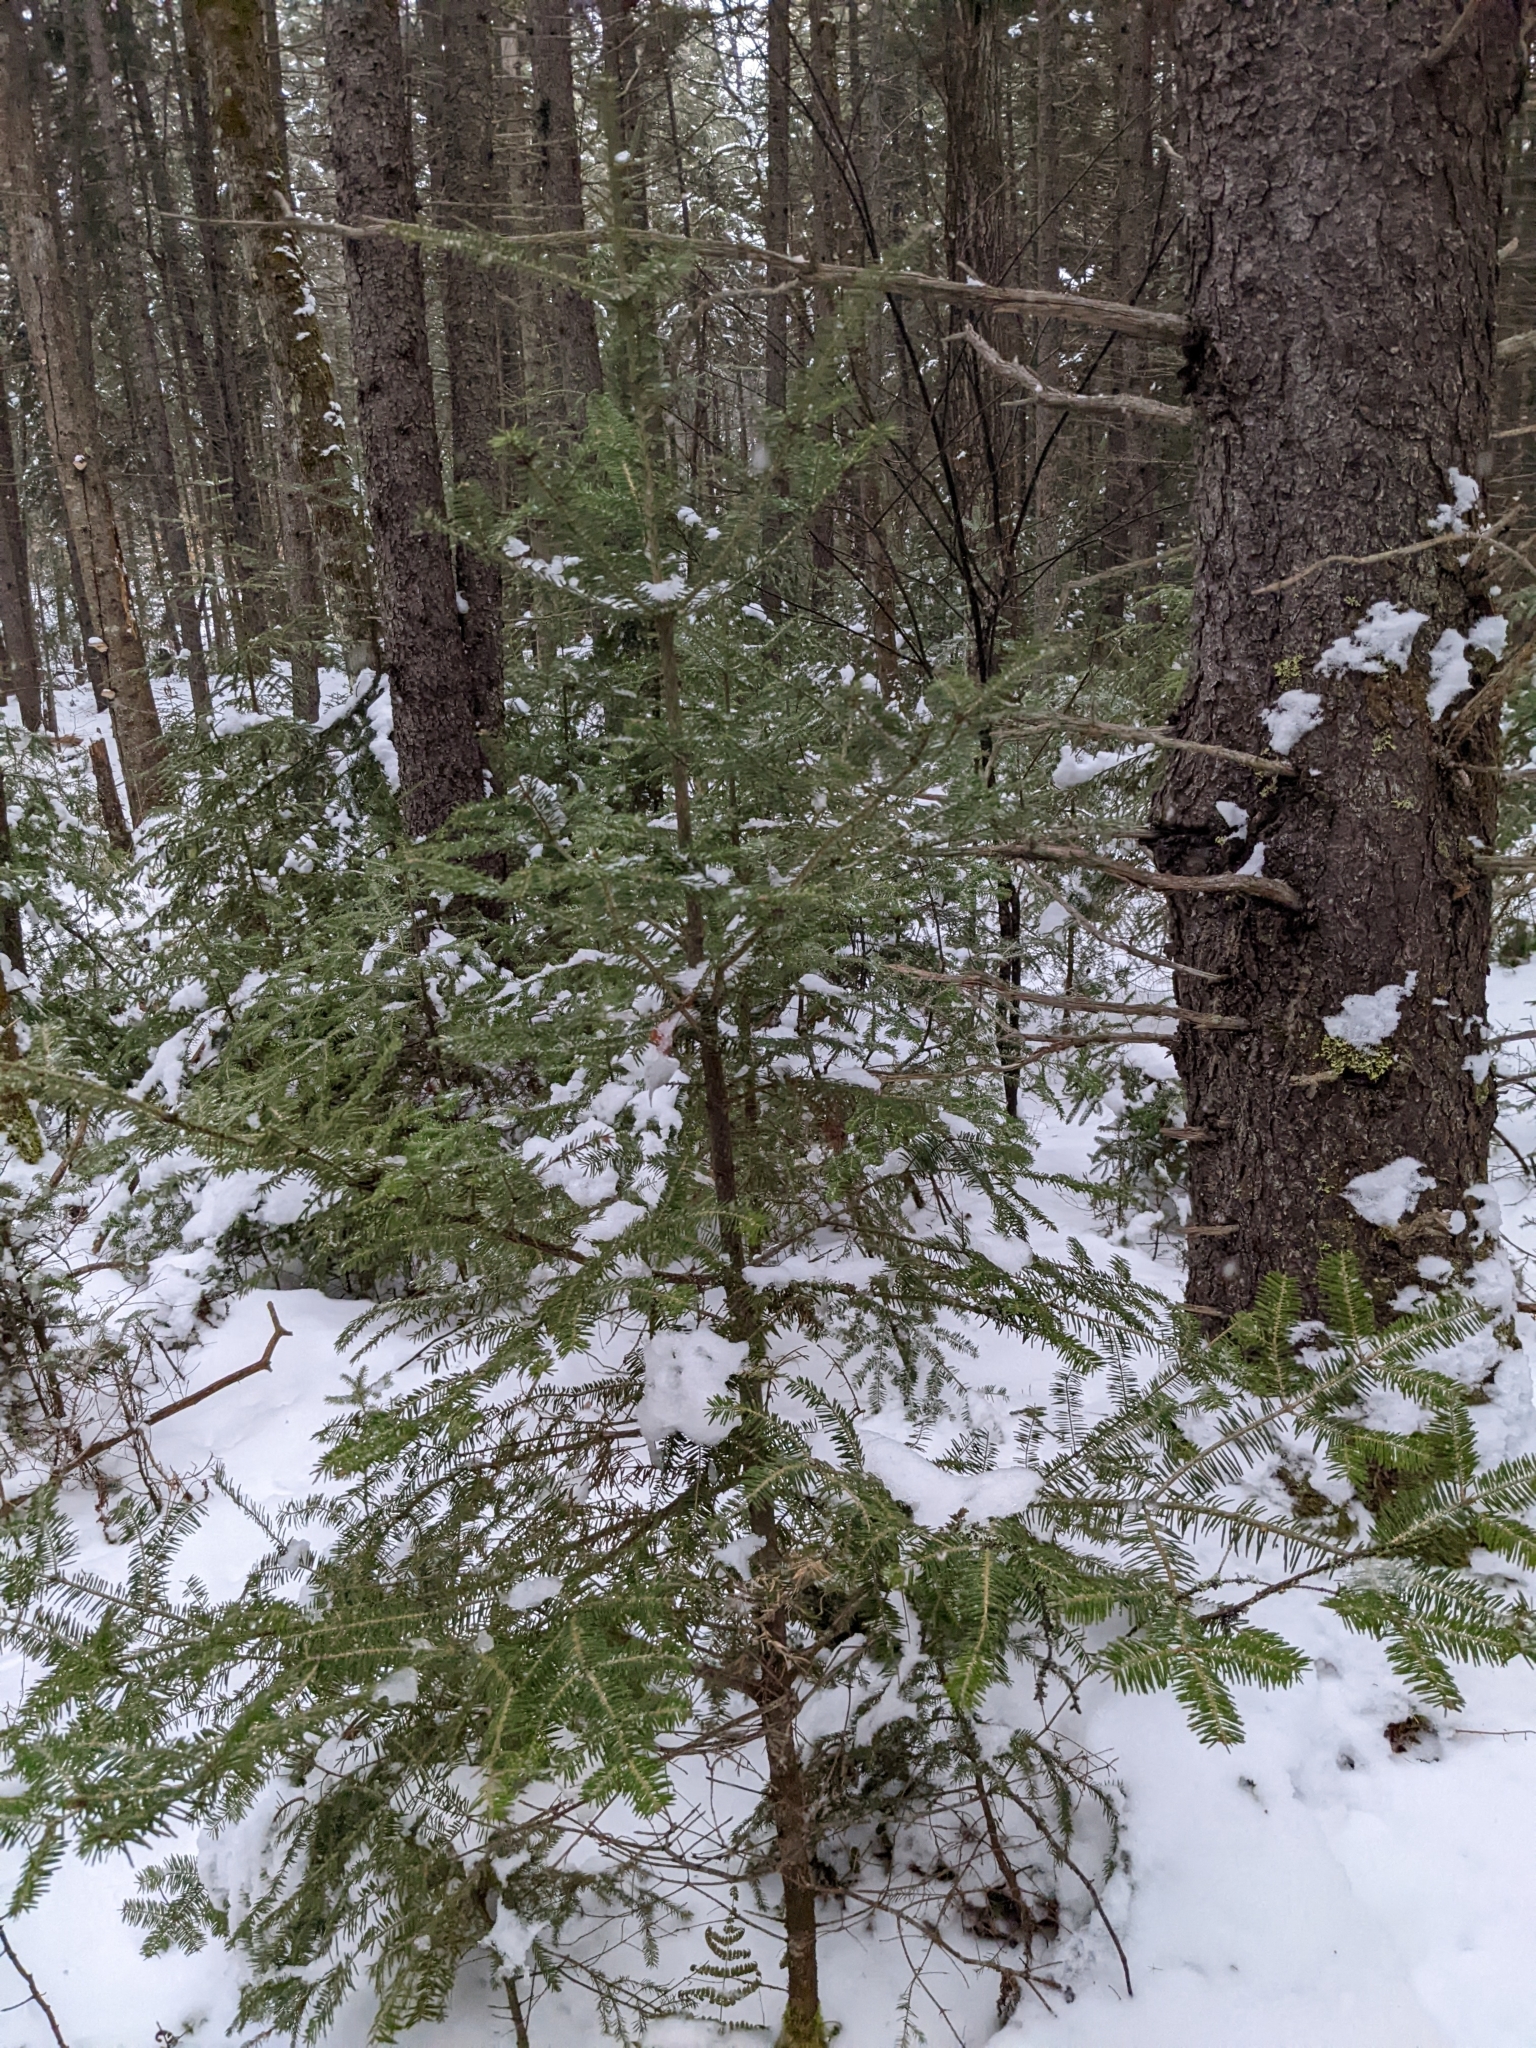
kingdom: Plantae
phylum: Tracheophyta
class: Pinopsida
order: Pinales
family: Pinaceae
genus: Abies
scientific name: Abies balsamea
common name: Balsam fir
